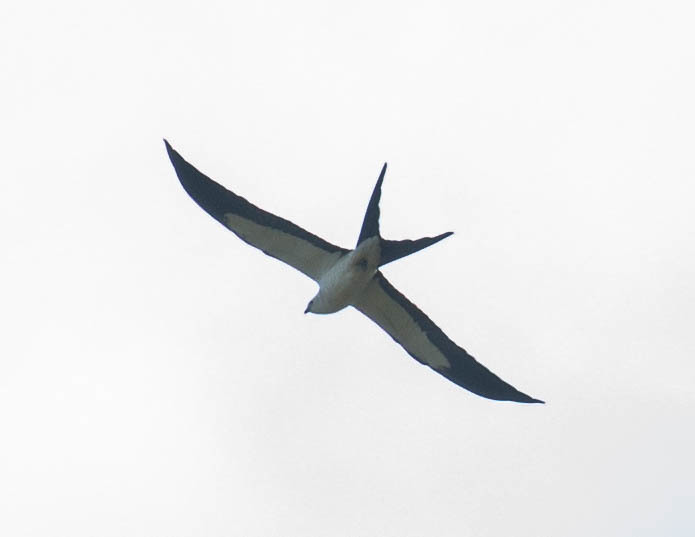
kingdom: Animalia
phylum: Chordata
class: Aves
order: Accipitriformes
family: Accipitridae
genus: Elanoides
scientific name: Elanoides forficatus
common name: Swallow-tailed kite
